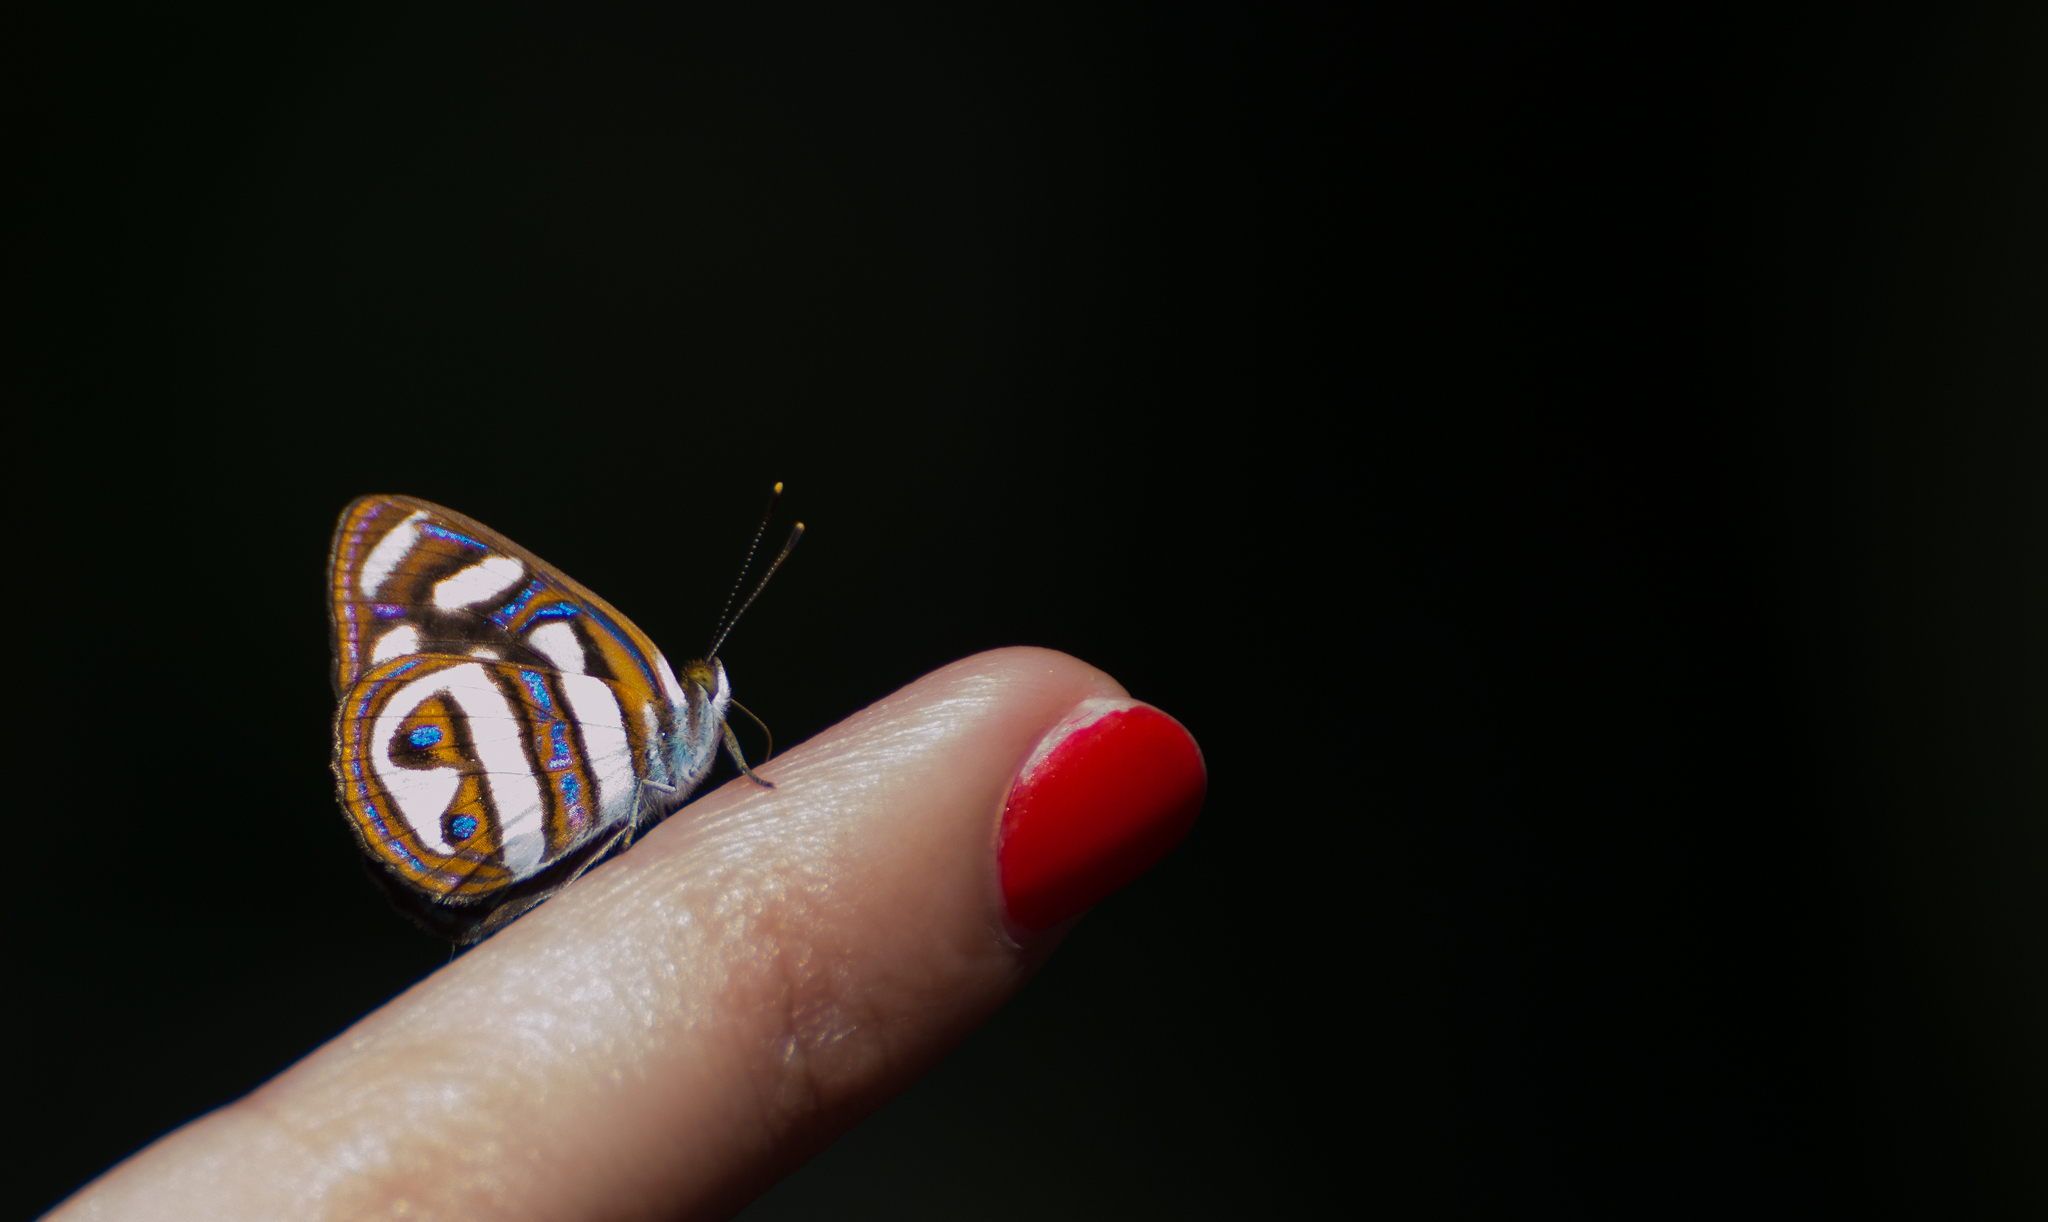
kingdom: Animalia
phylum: Arthropoda
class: Insecta
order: Lepidoptera
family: Nymphalidae
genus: Dynamine
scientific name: Dynamine artemisia
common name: Small-eyed sailor
